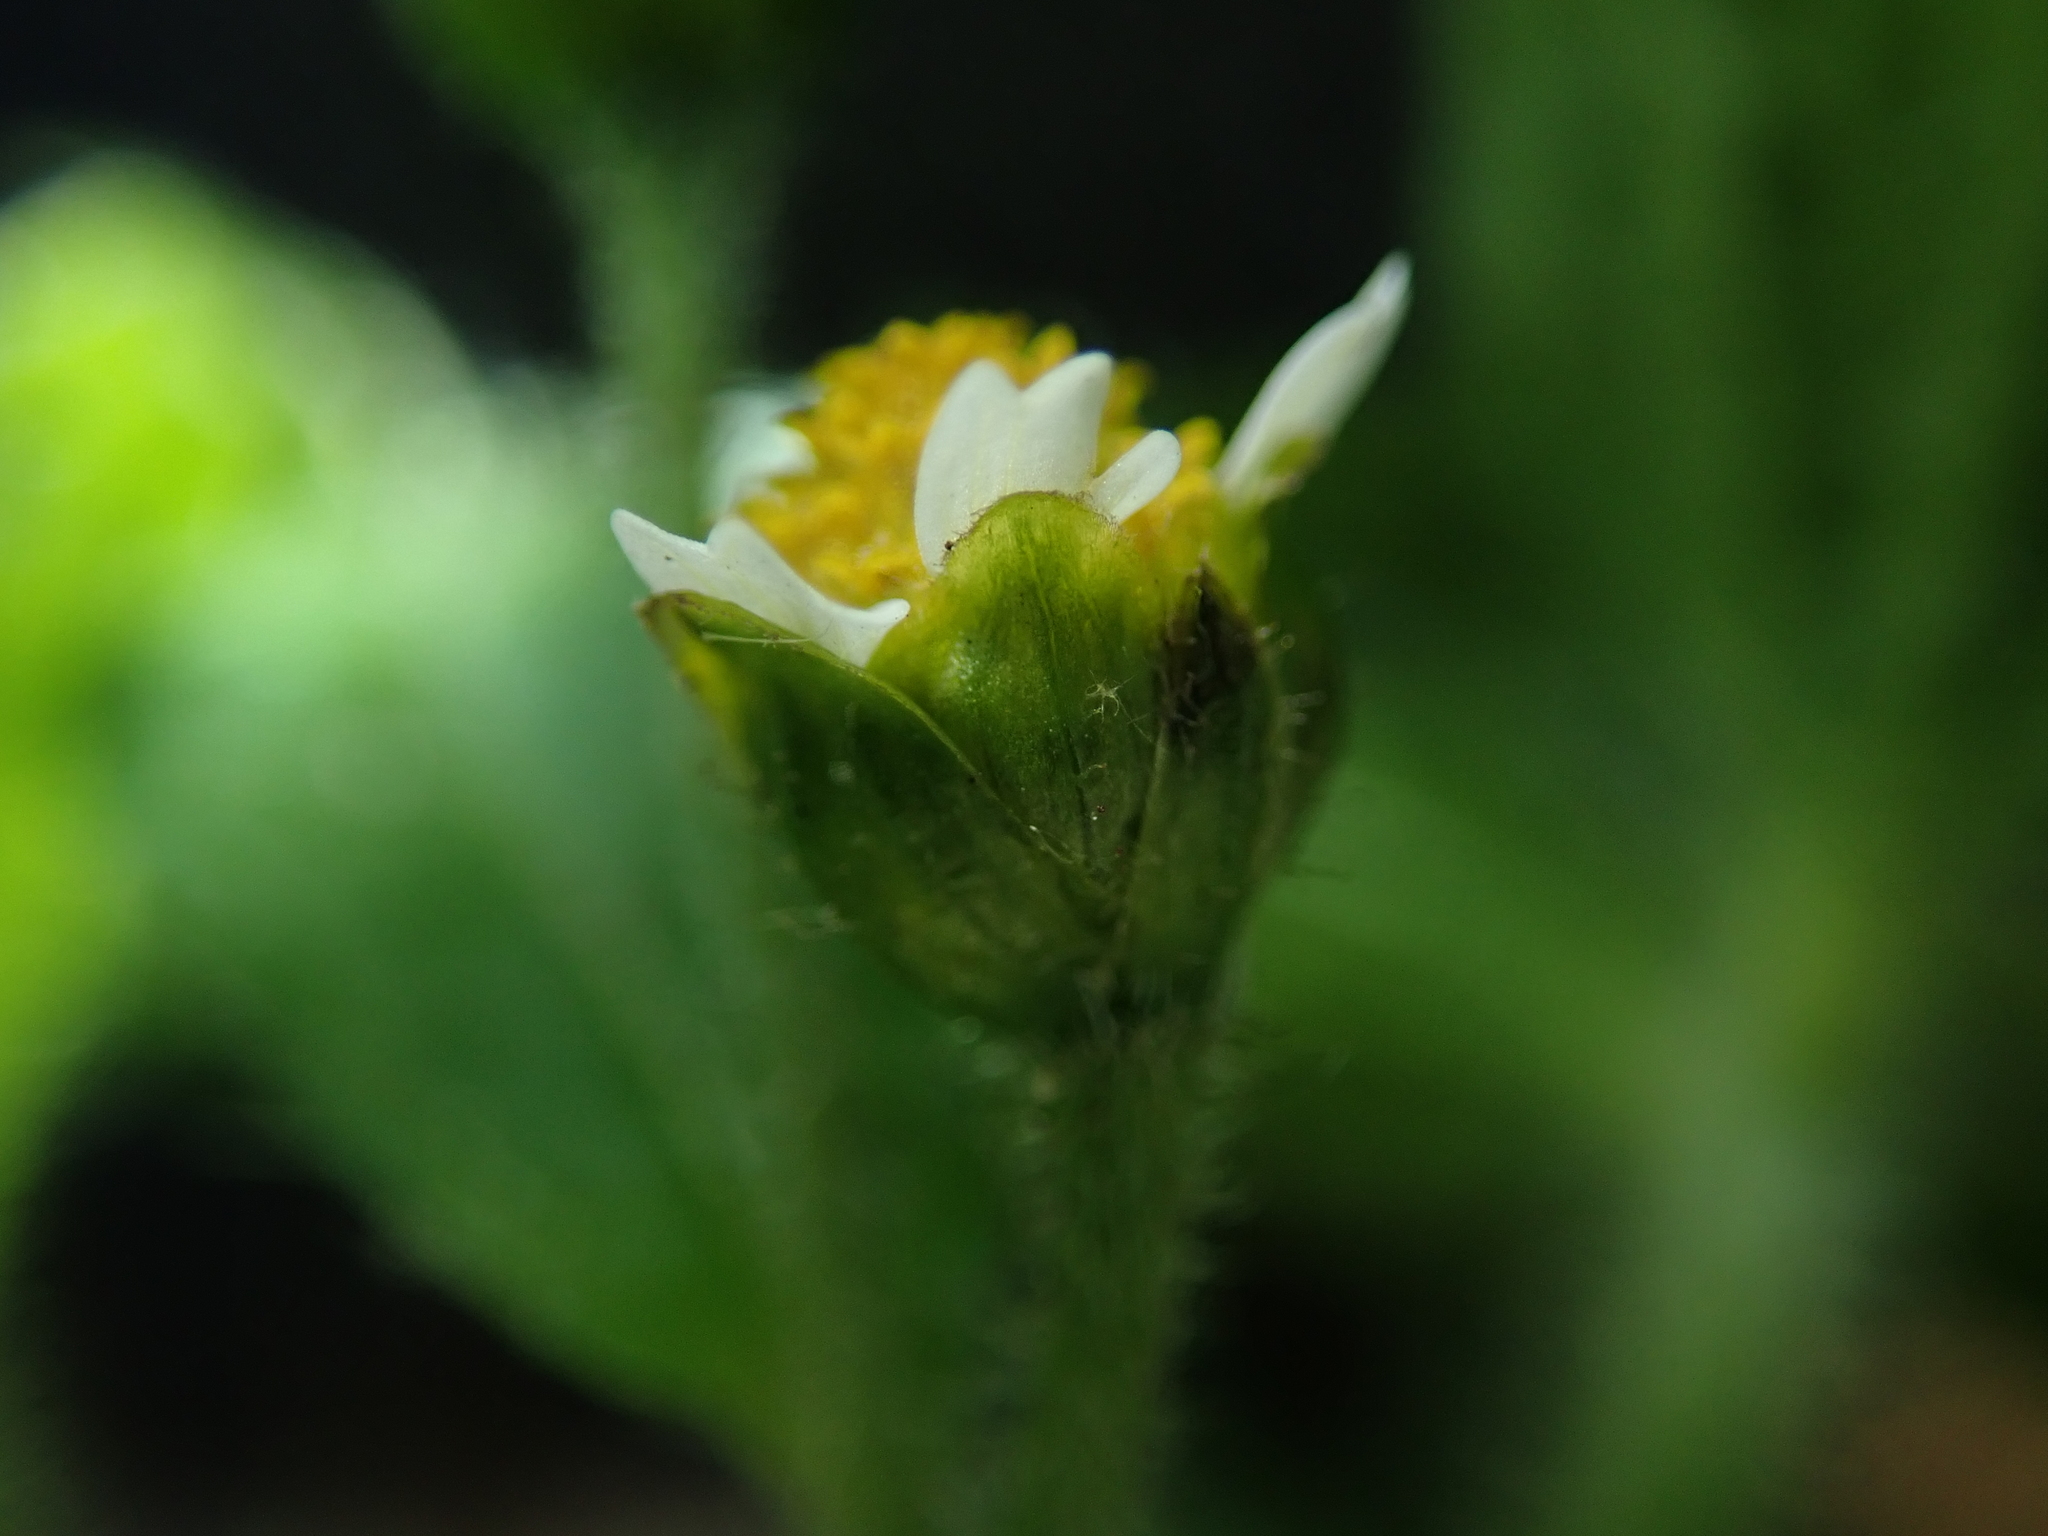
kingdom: Plantae
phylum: Tracheophyta
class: Magnoliopsida
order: Asterales
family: Asteraceae
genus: Galinsoga
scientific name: Galinsoga quadriradiata
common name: Shaggy soldier
